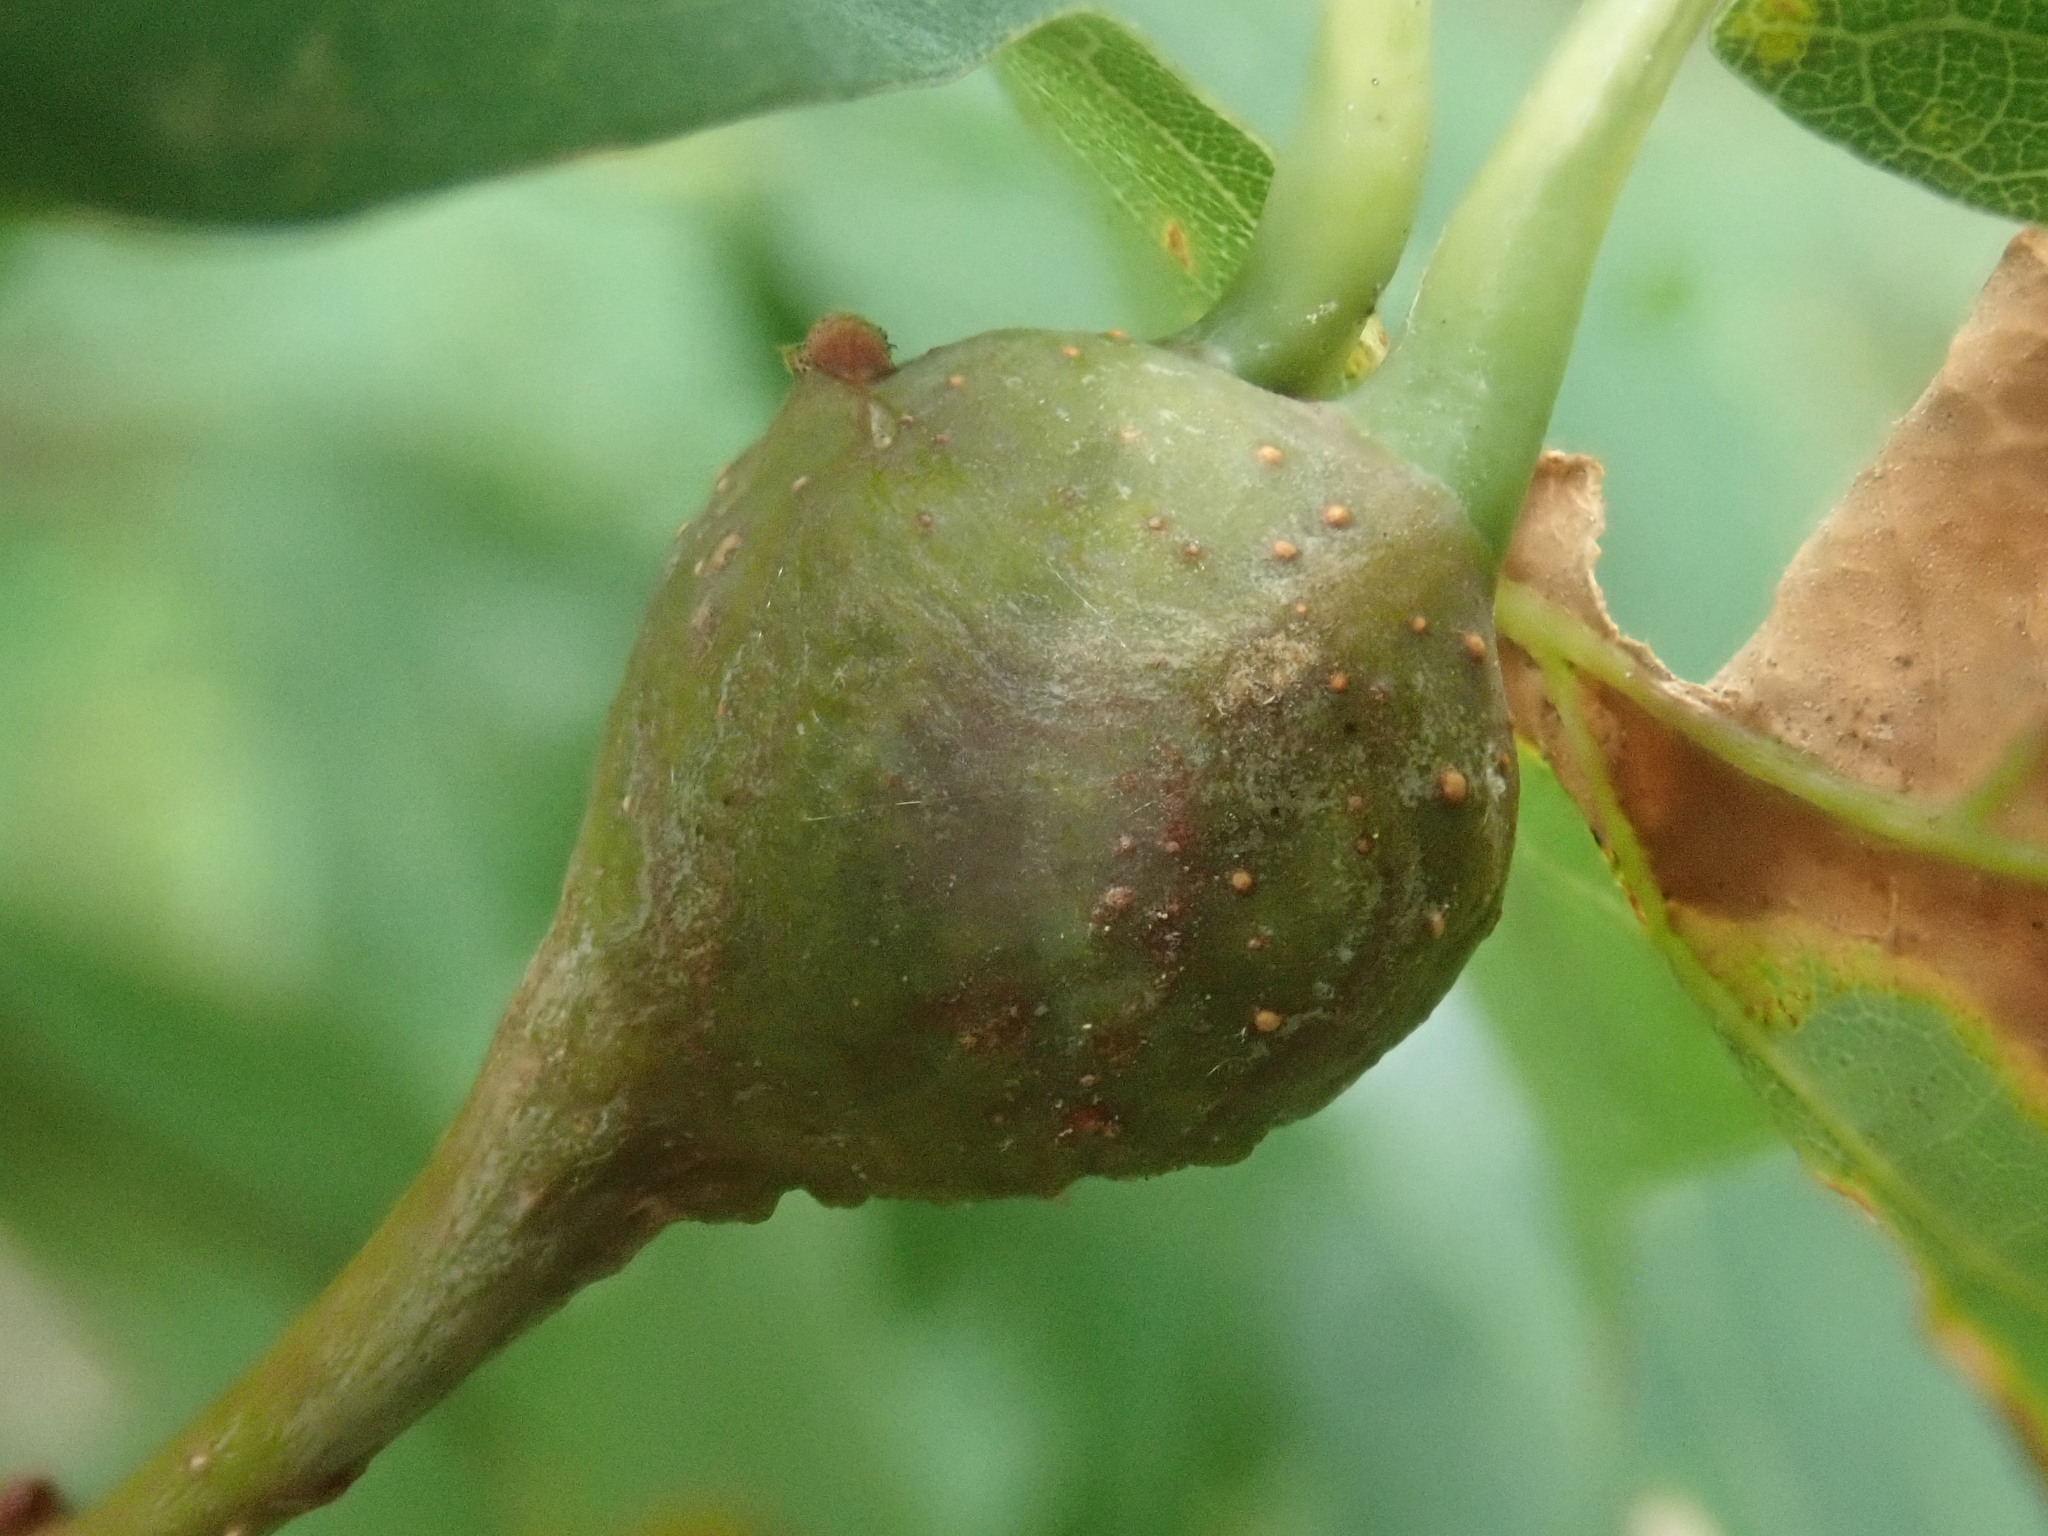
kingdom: Animalia
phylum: Arthropoda
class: Insecta
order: Hymenoptera
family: Cynipidae
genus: Callirhytis
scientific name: Callirhytis clavula
